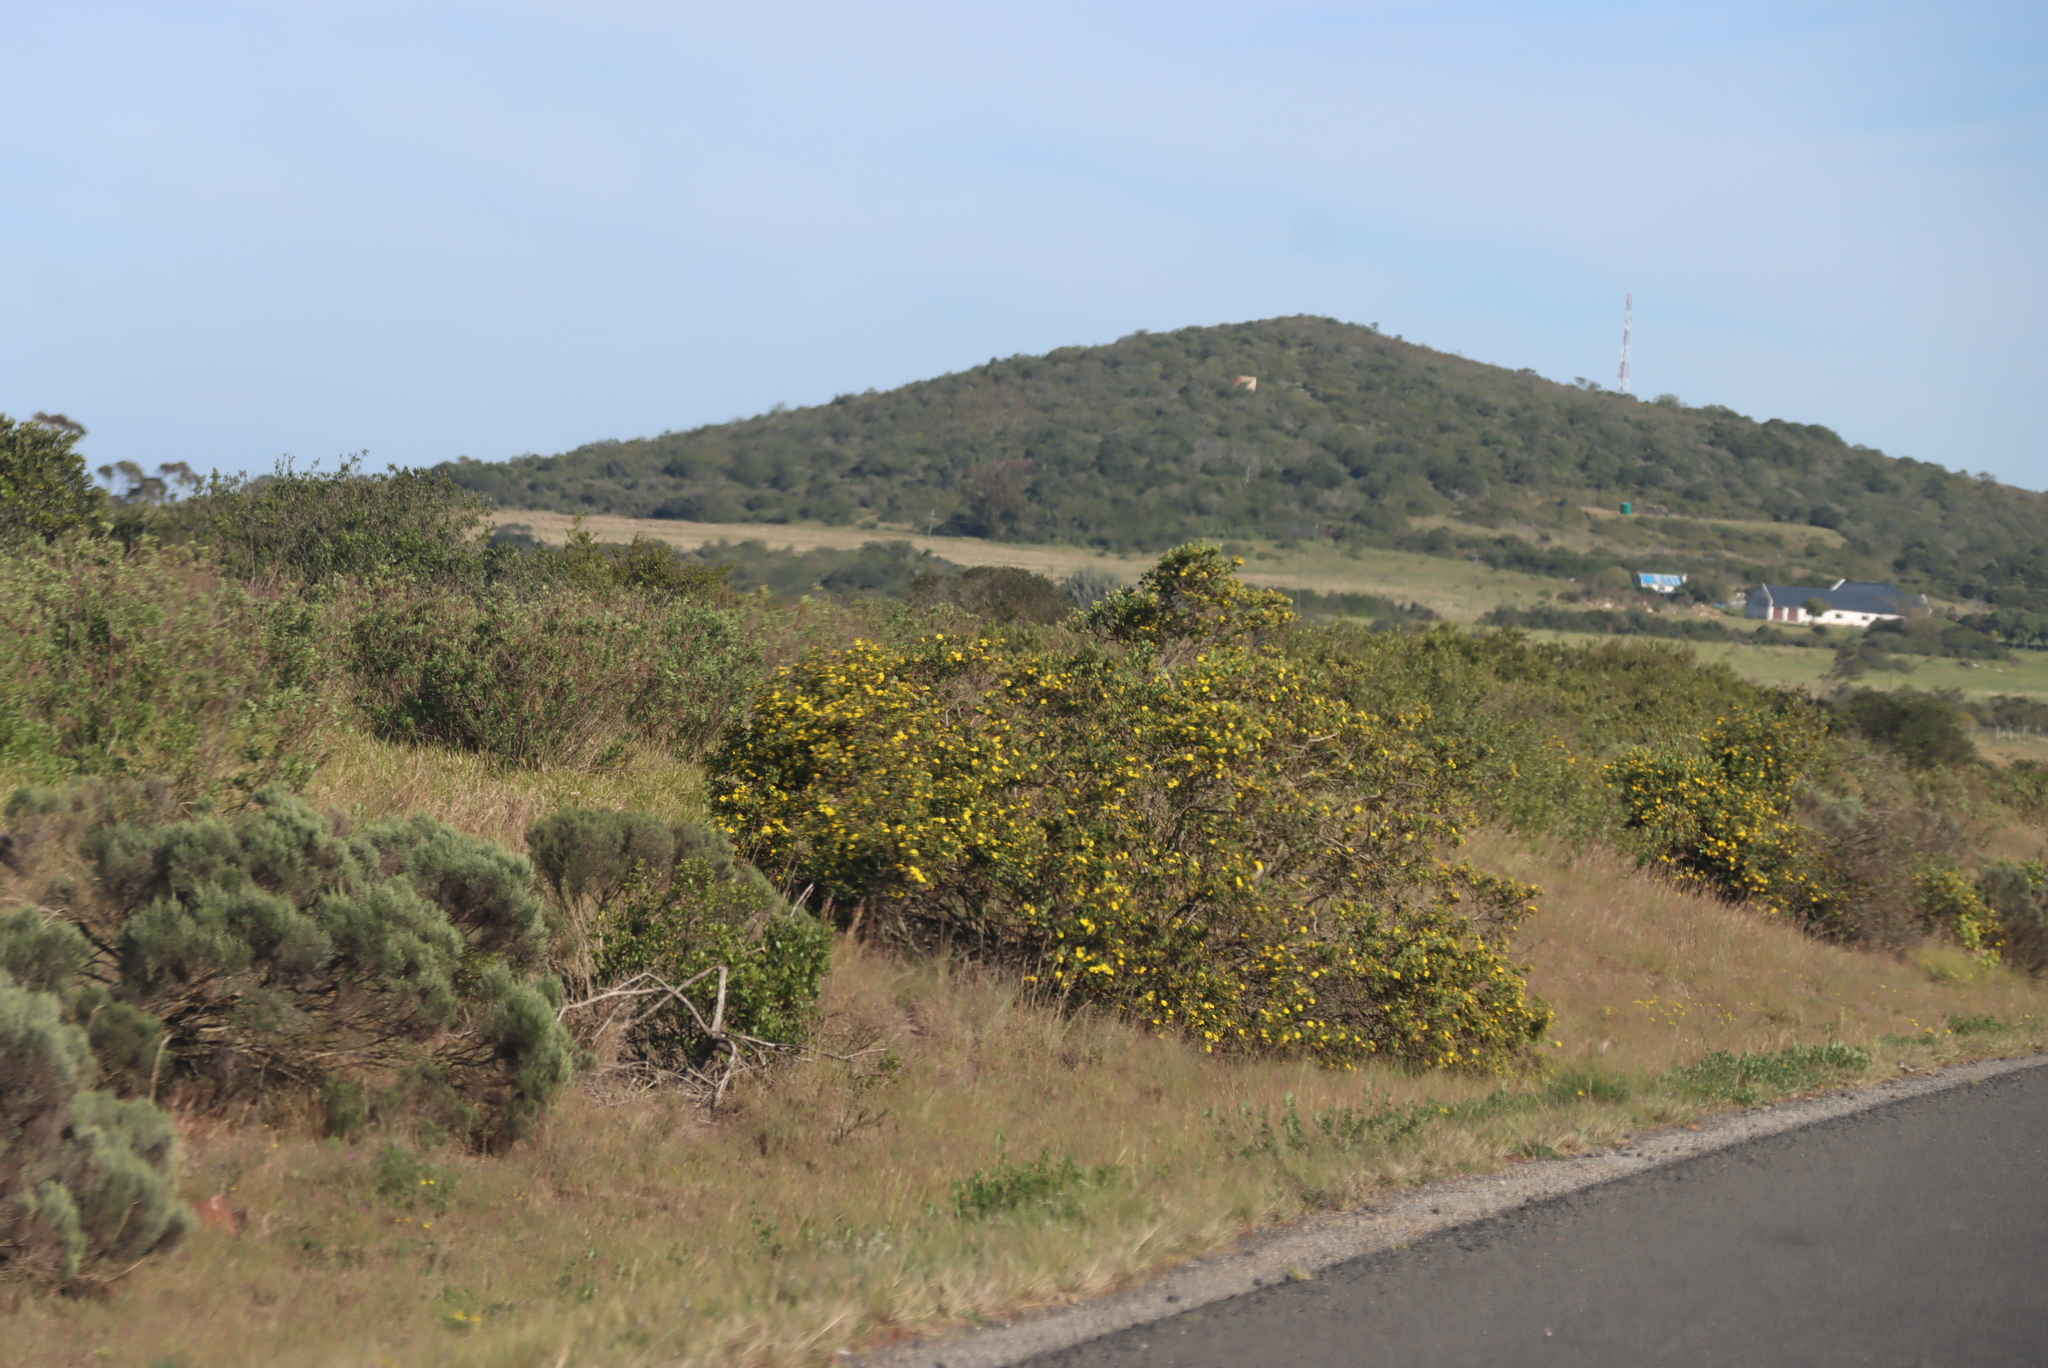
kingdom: Plantae
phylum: Tracheophyta
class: Magnoliopsida
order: Asterales
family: Asteraceae
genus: Osteospermum
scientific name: Osteospermum moniliferum
